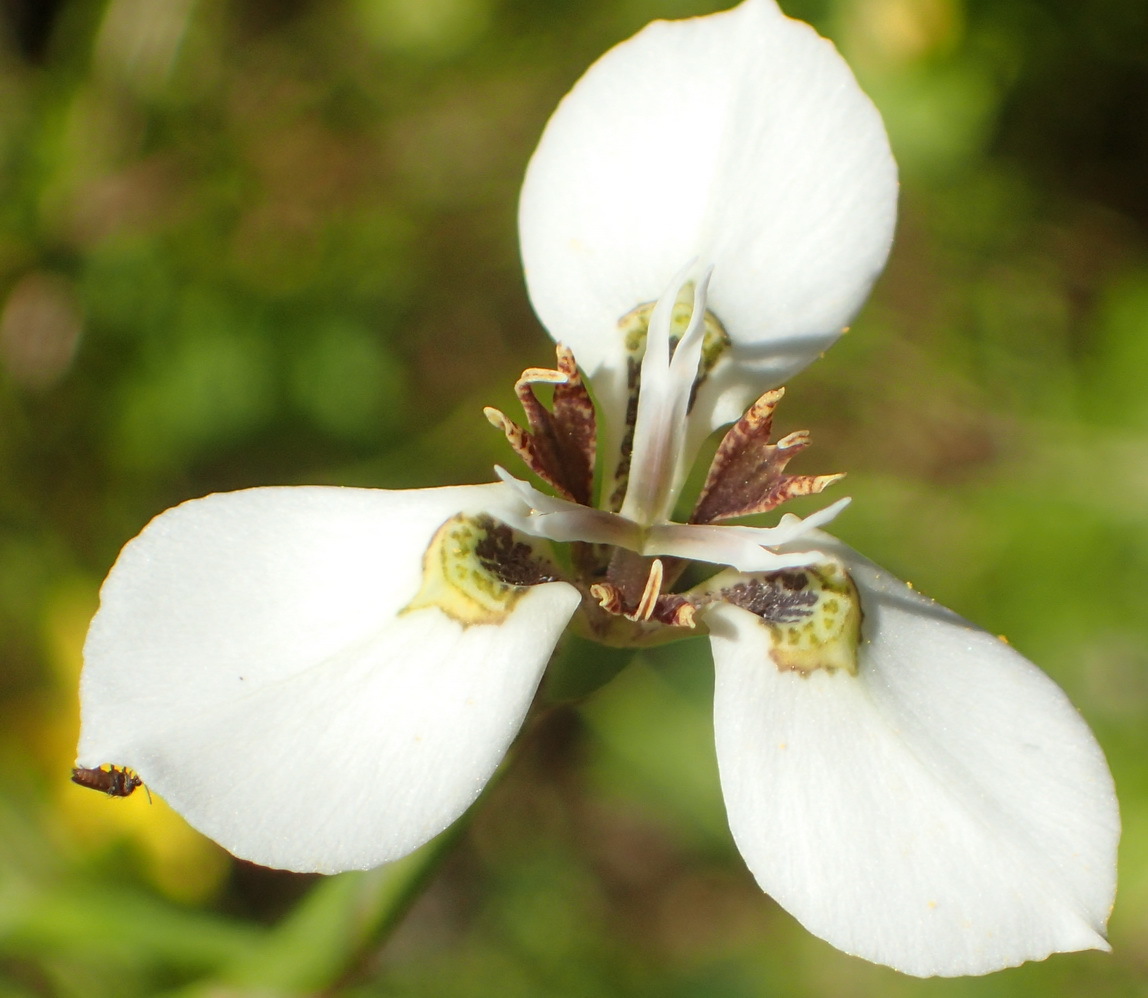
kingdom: Plantae
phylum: Tracheophyta
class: Liliopsida
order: Asparagales
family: Iridaceae
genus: Moraea
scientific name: Moraea unguiculata
